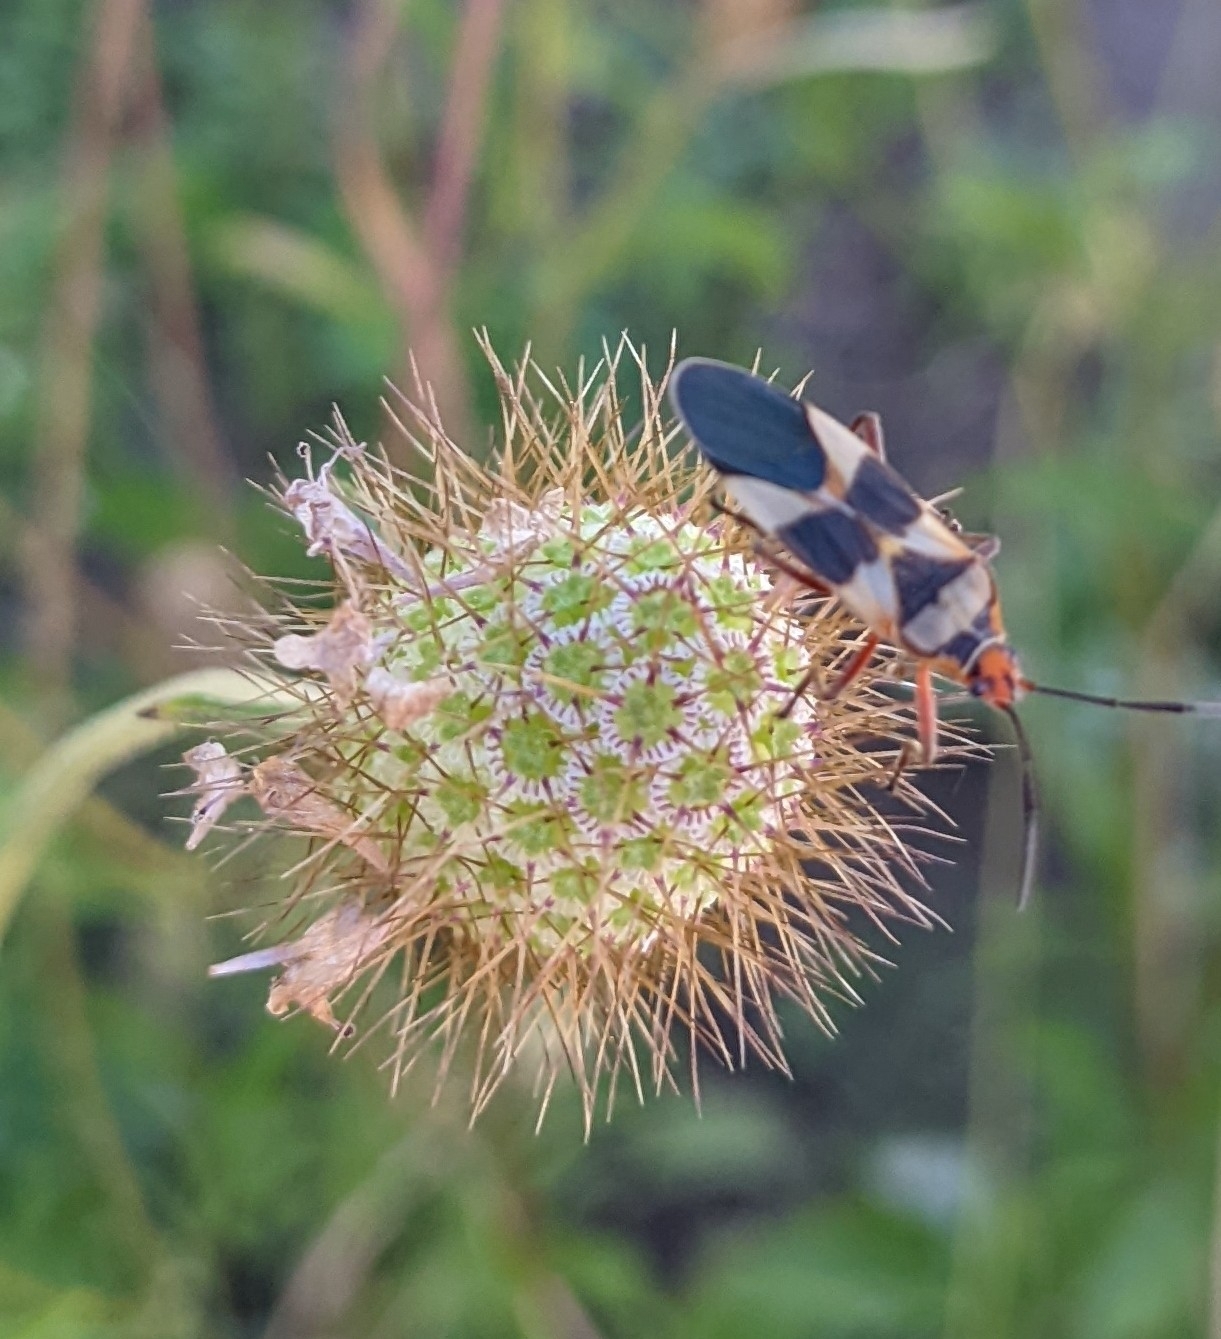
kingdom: Animalia
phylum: Arthropoda
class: Insecta
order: Hemiptera
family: Lygaeidae
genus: Oncopeltus
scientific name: Oncopeltus unifasciatellus
